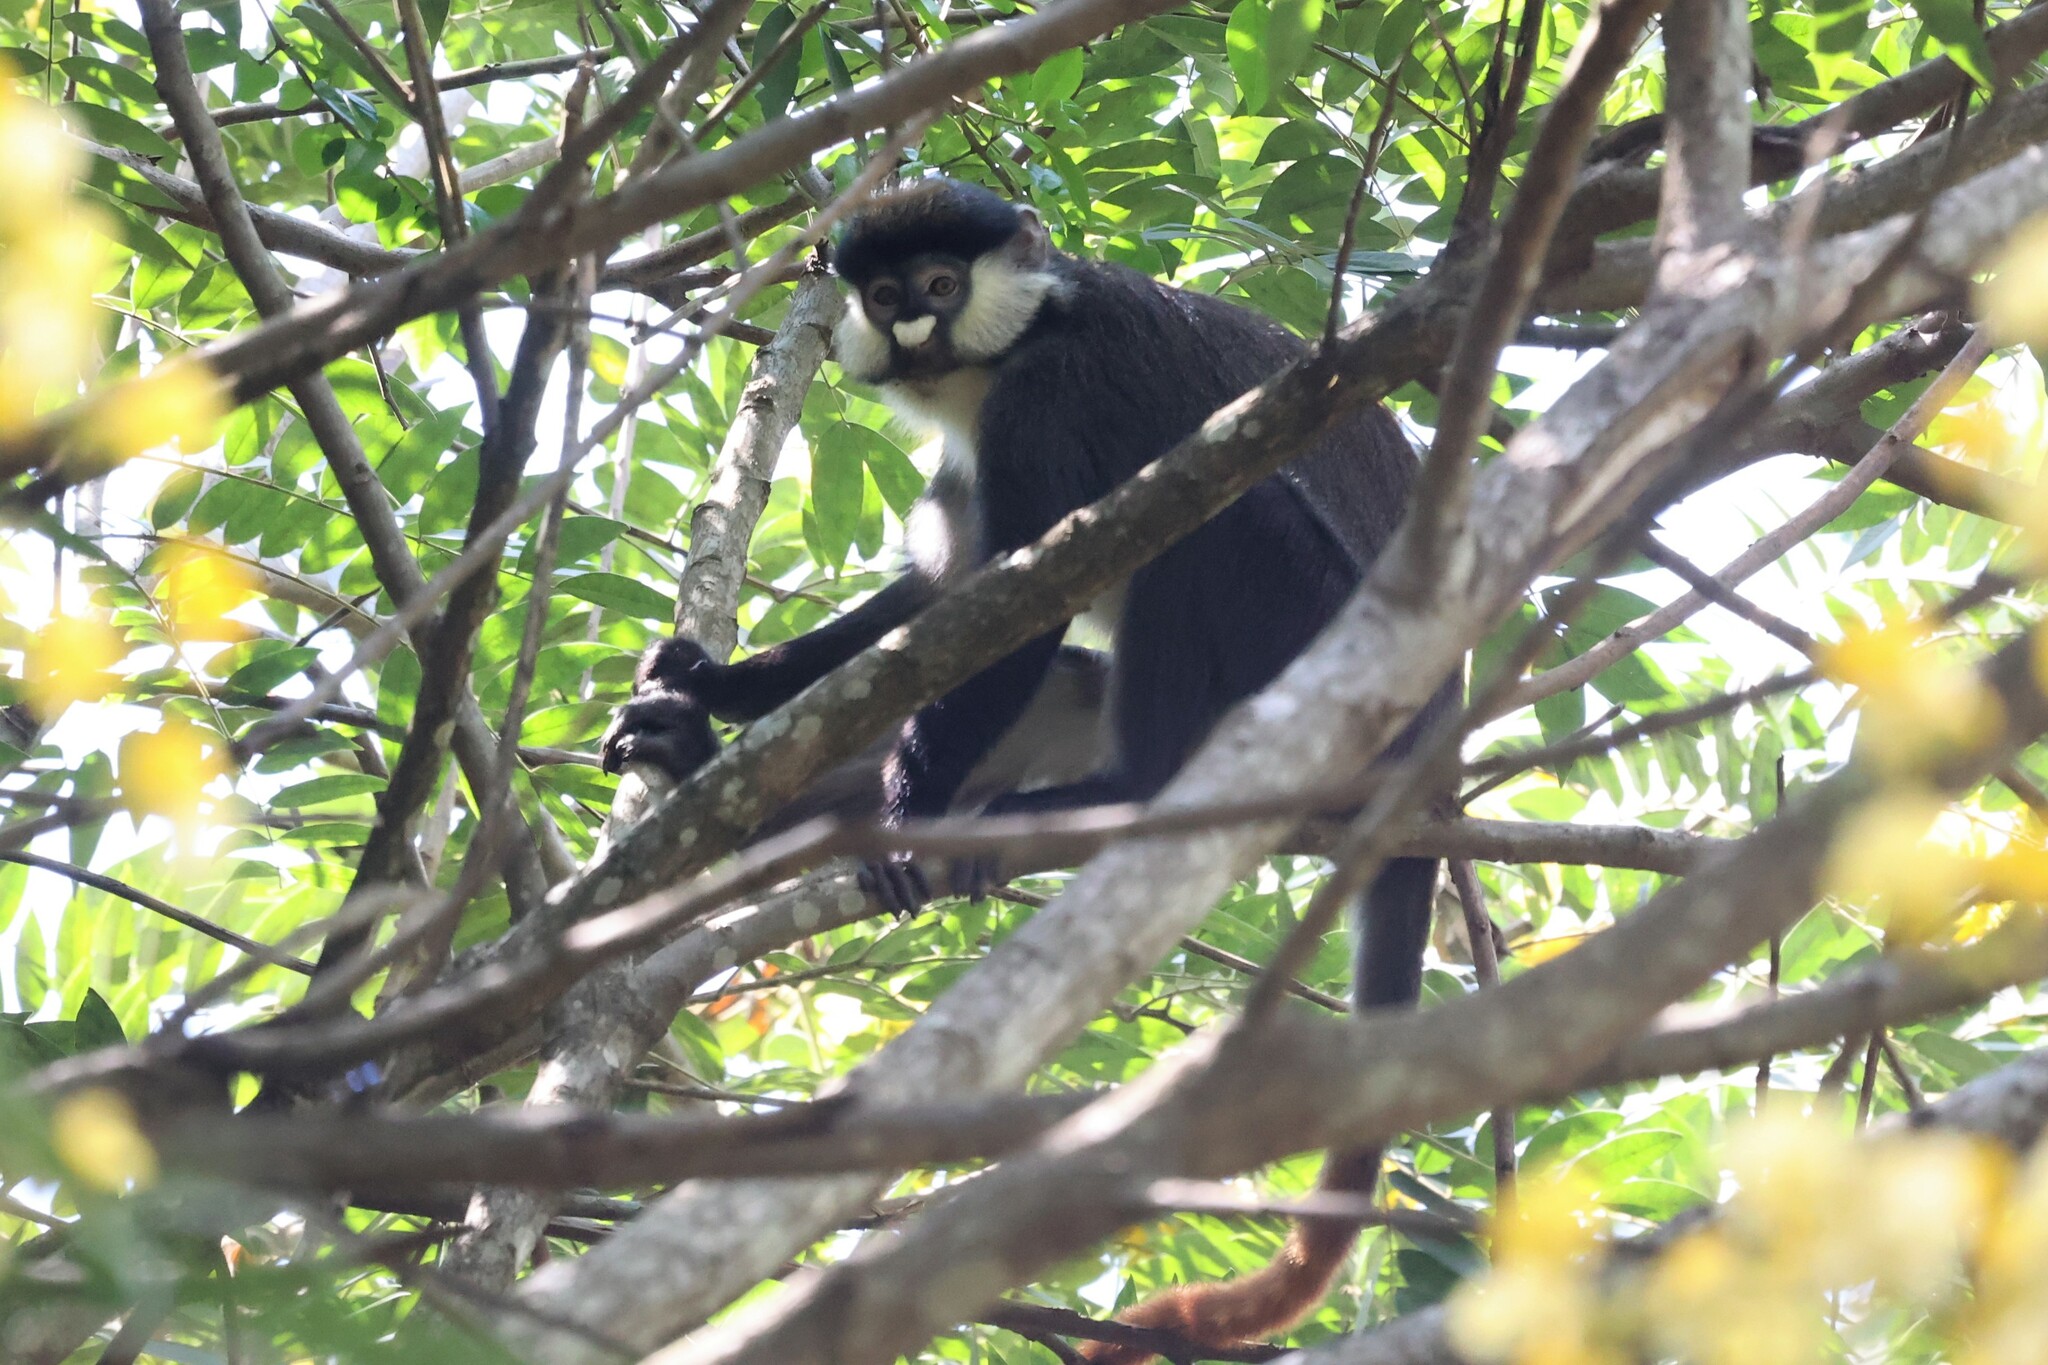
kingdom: Animalia
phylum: Chordata
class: Mammalia
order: Primates
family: Cercopithecidae
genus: Cercopithecus
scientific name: Cercopithecus ascanius
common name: Red-tailed monkey
